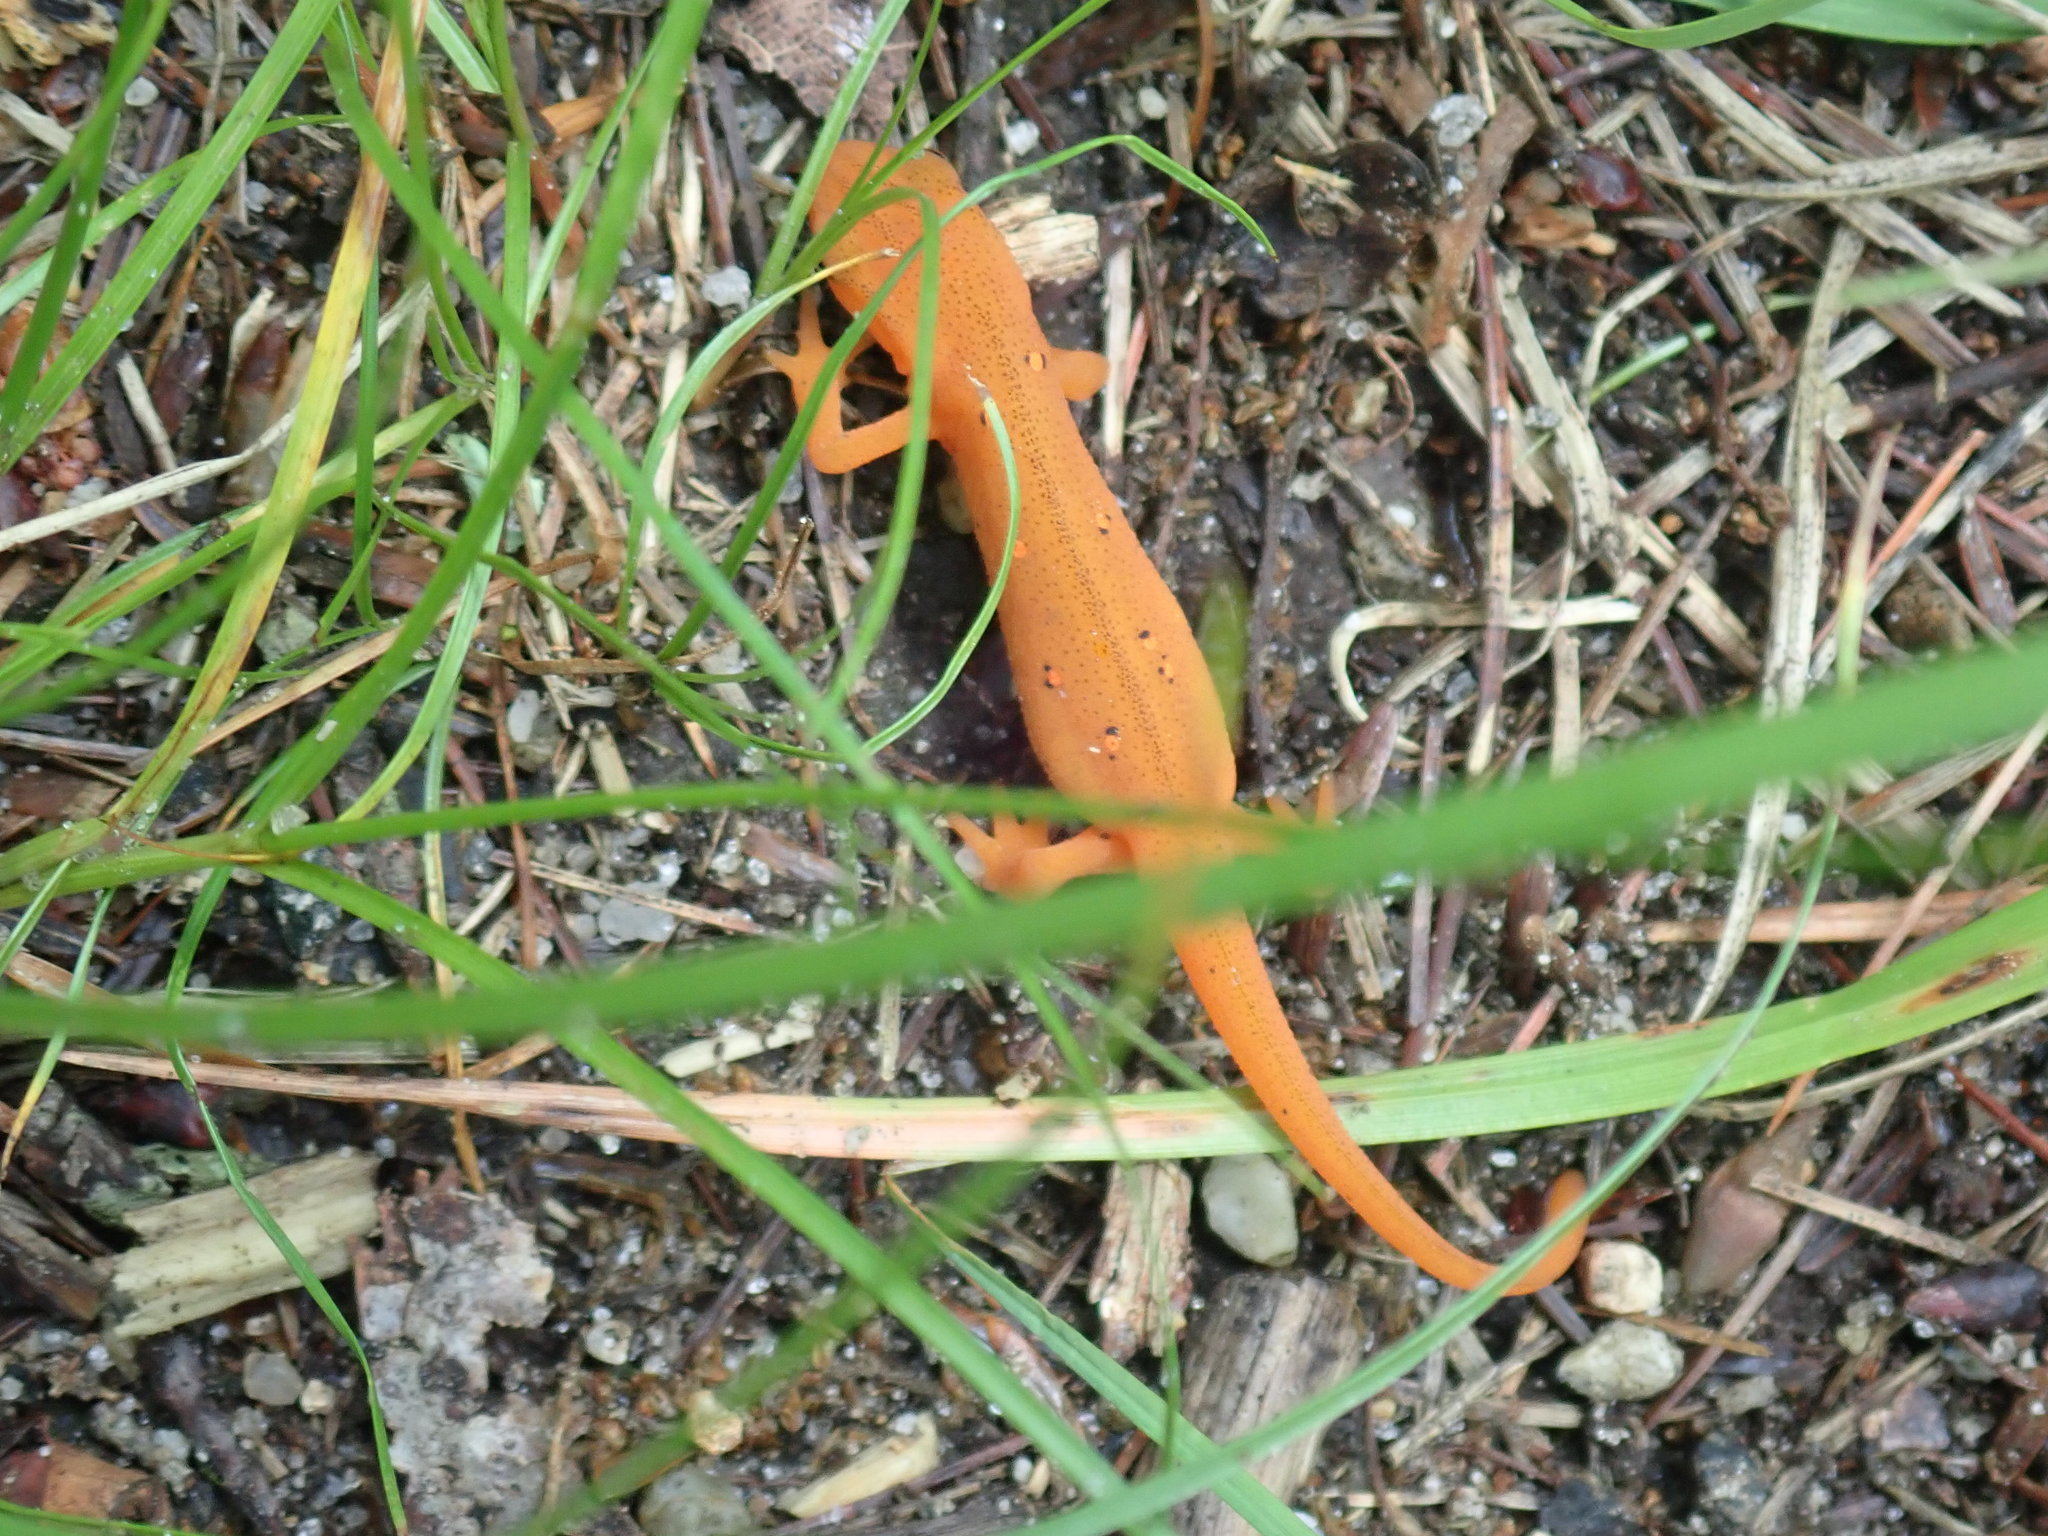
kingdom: Animalia
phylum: Chordata
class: Amphibia
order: Caudata
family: Salamandridae
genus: Notophthalmus
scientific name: Notophthalmus viridescens
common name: Eastern newt
